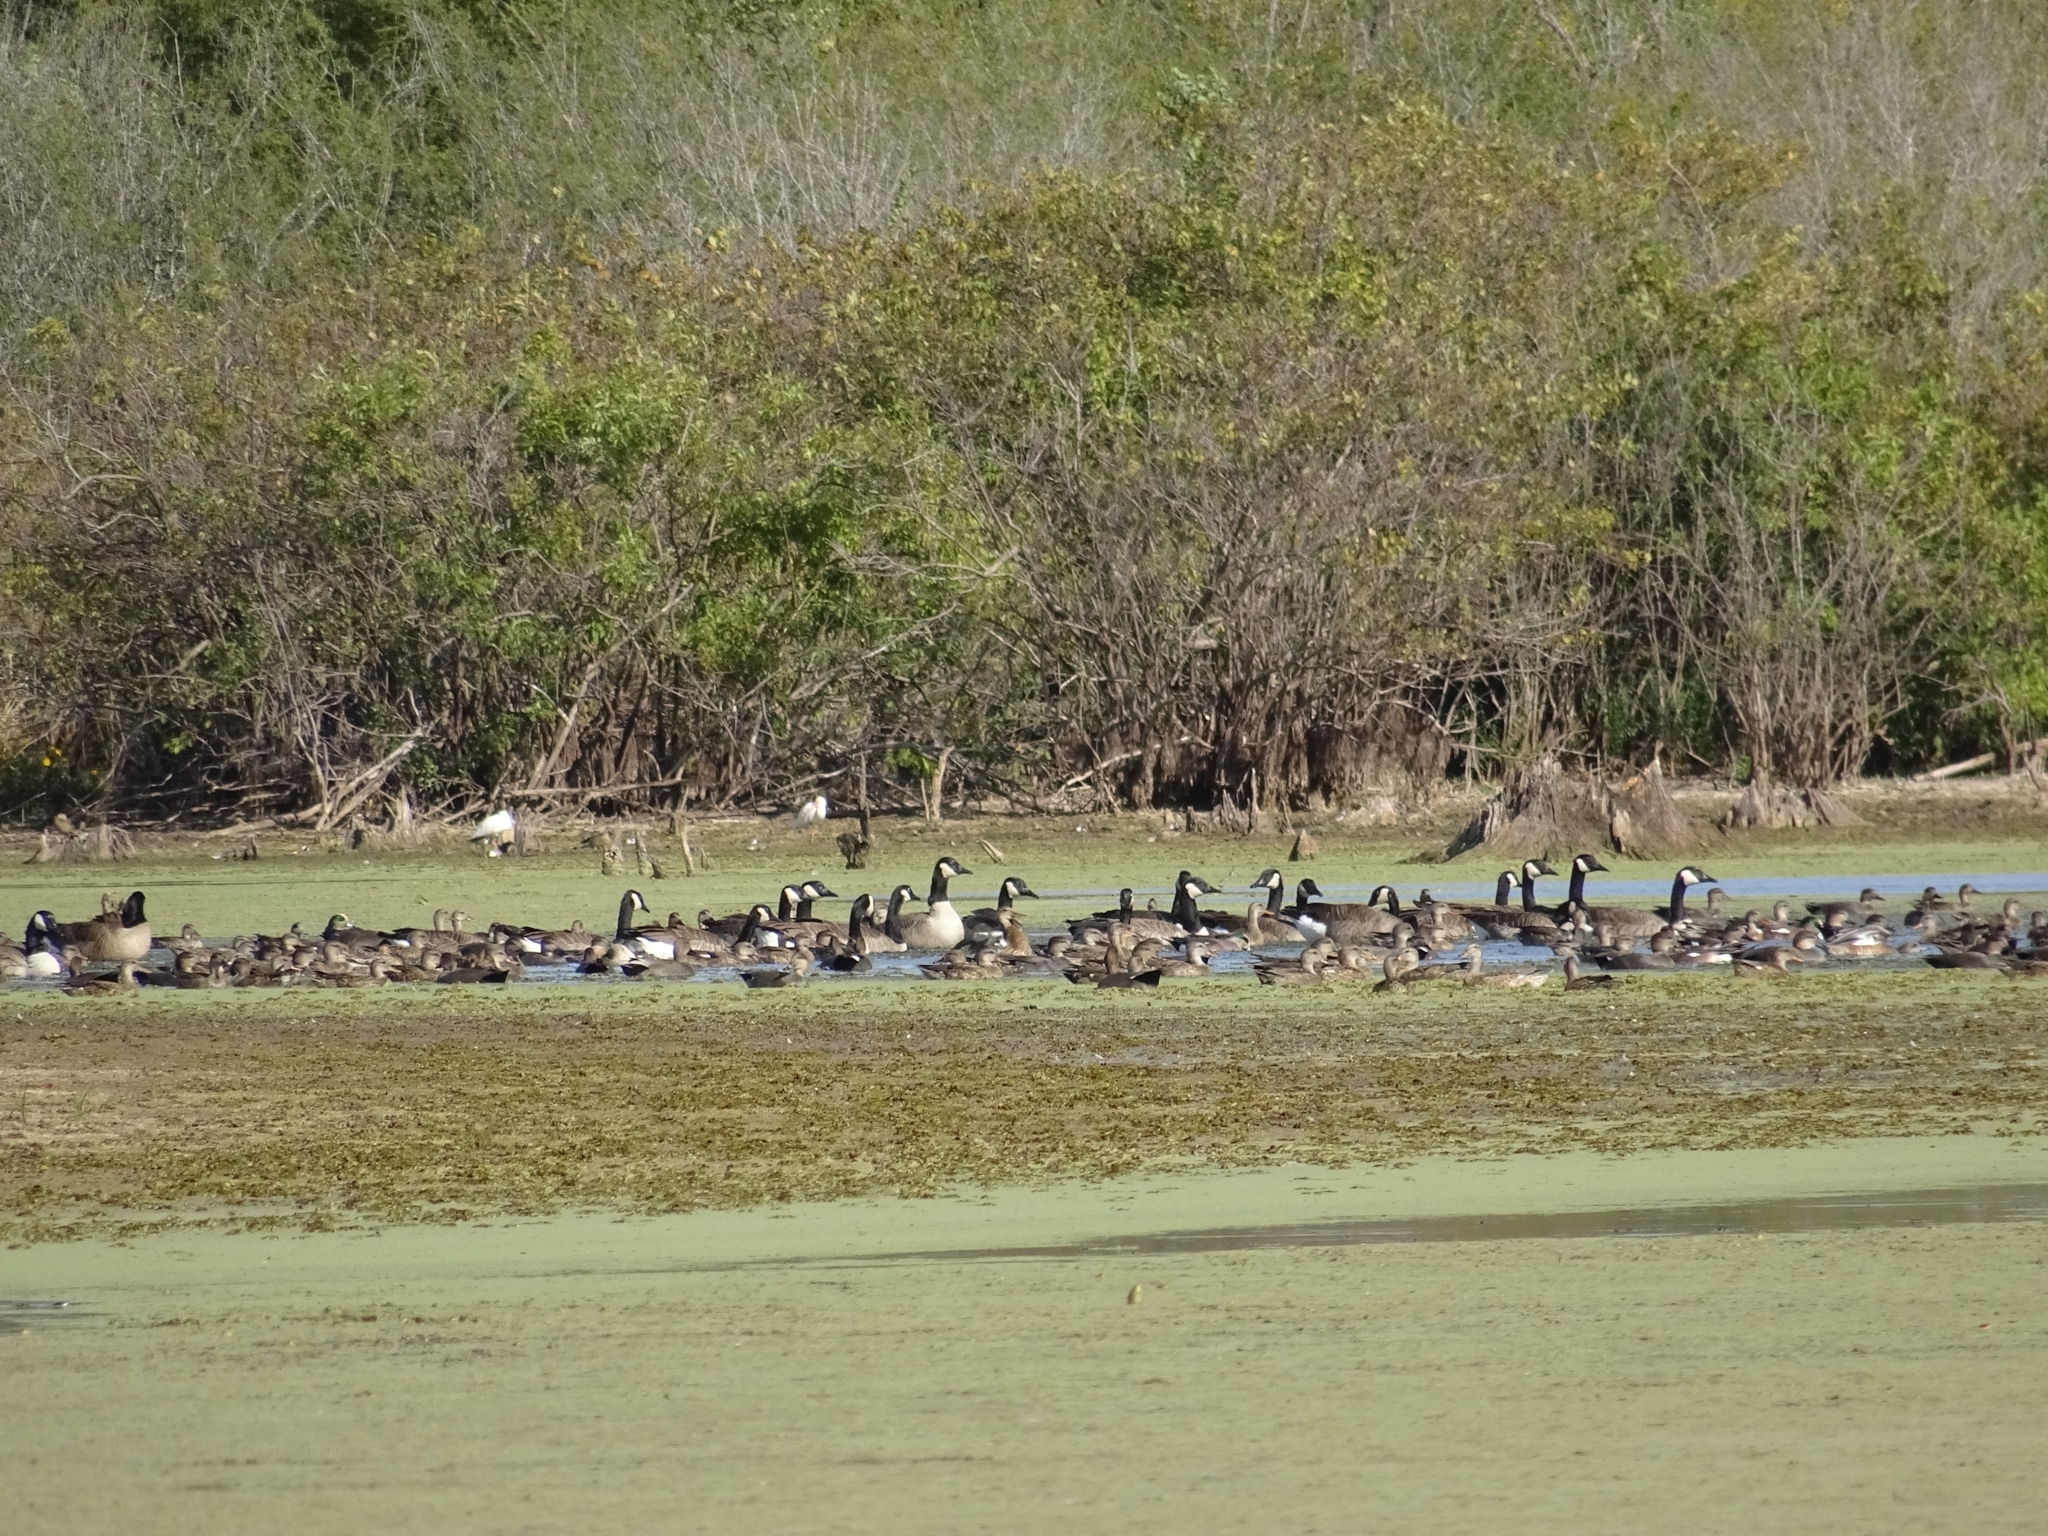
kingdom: Animalia
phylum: Chordata
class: Aves
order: Anseriformes
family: Anatidae
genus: Branta
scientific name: Branta canadensis
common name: Canada goose
